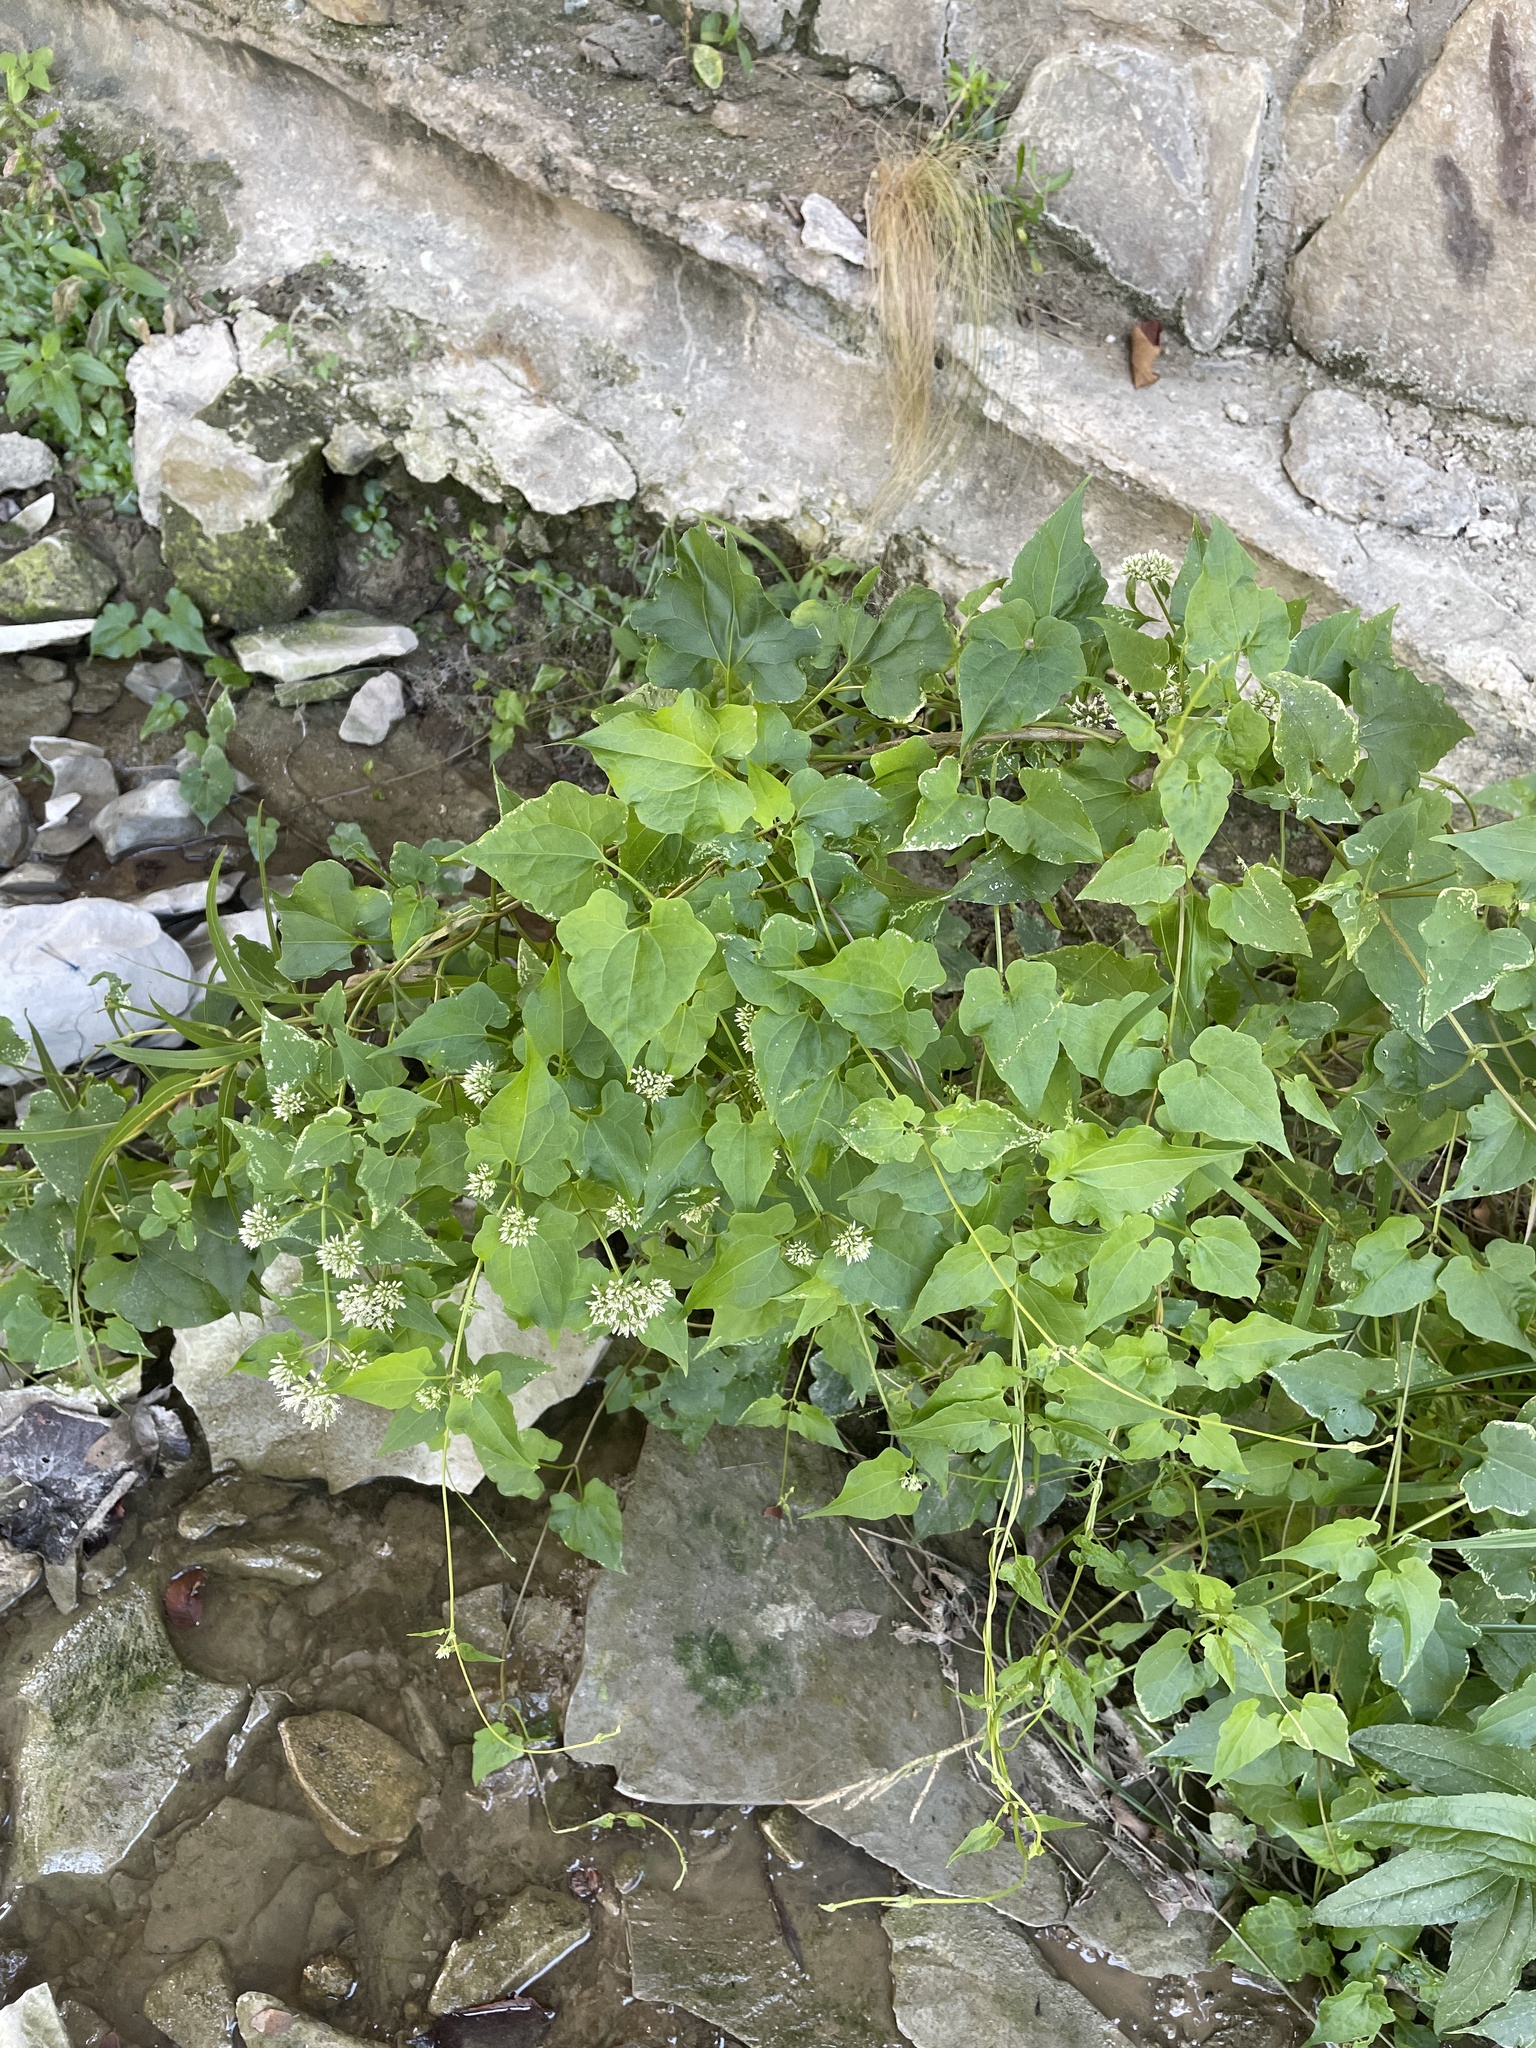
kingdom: Plantae
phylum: Tracheophyta
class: Magnoliopsida
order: Asterales
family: Asteraceae
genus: Mikania
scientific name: Mikania scandens
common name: Climbing hempvine
